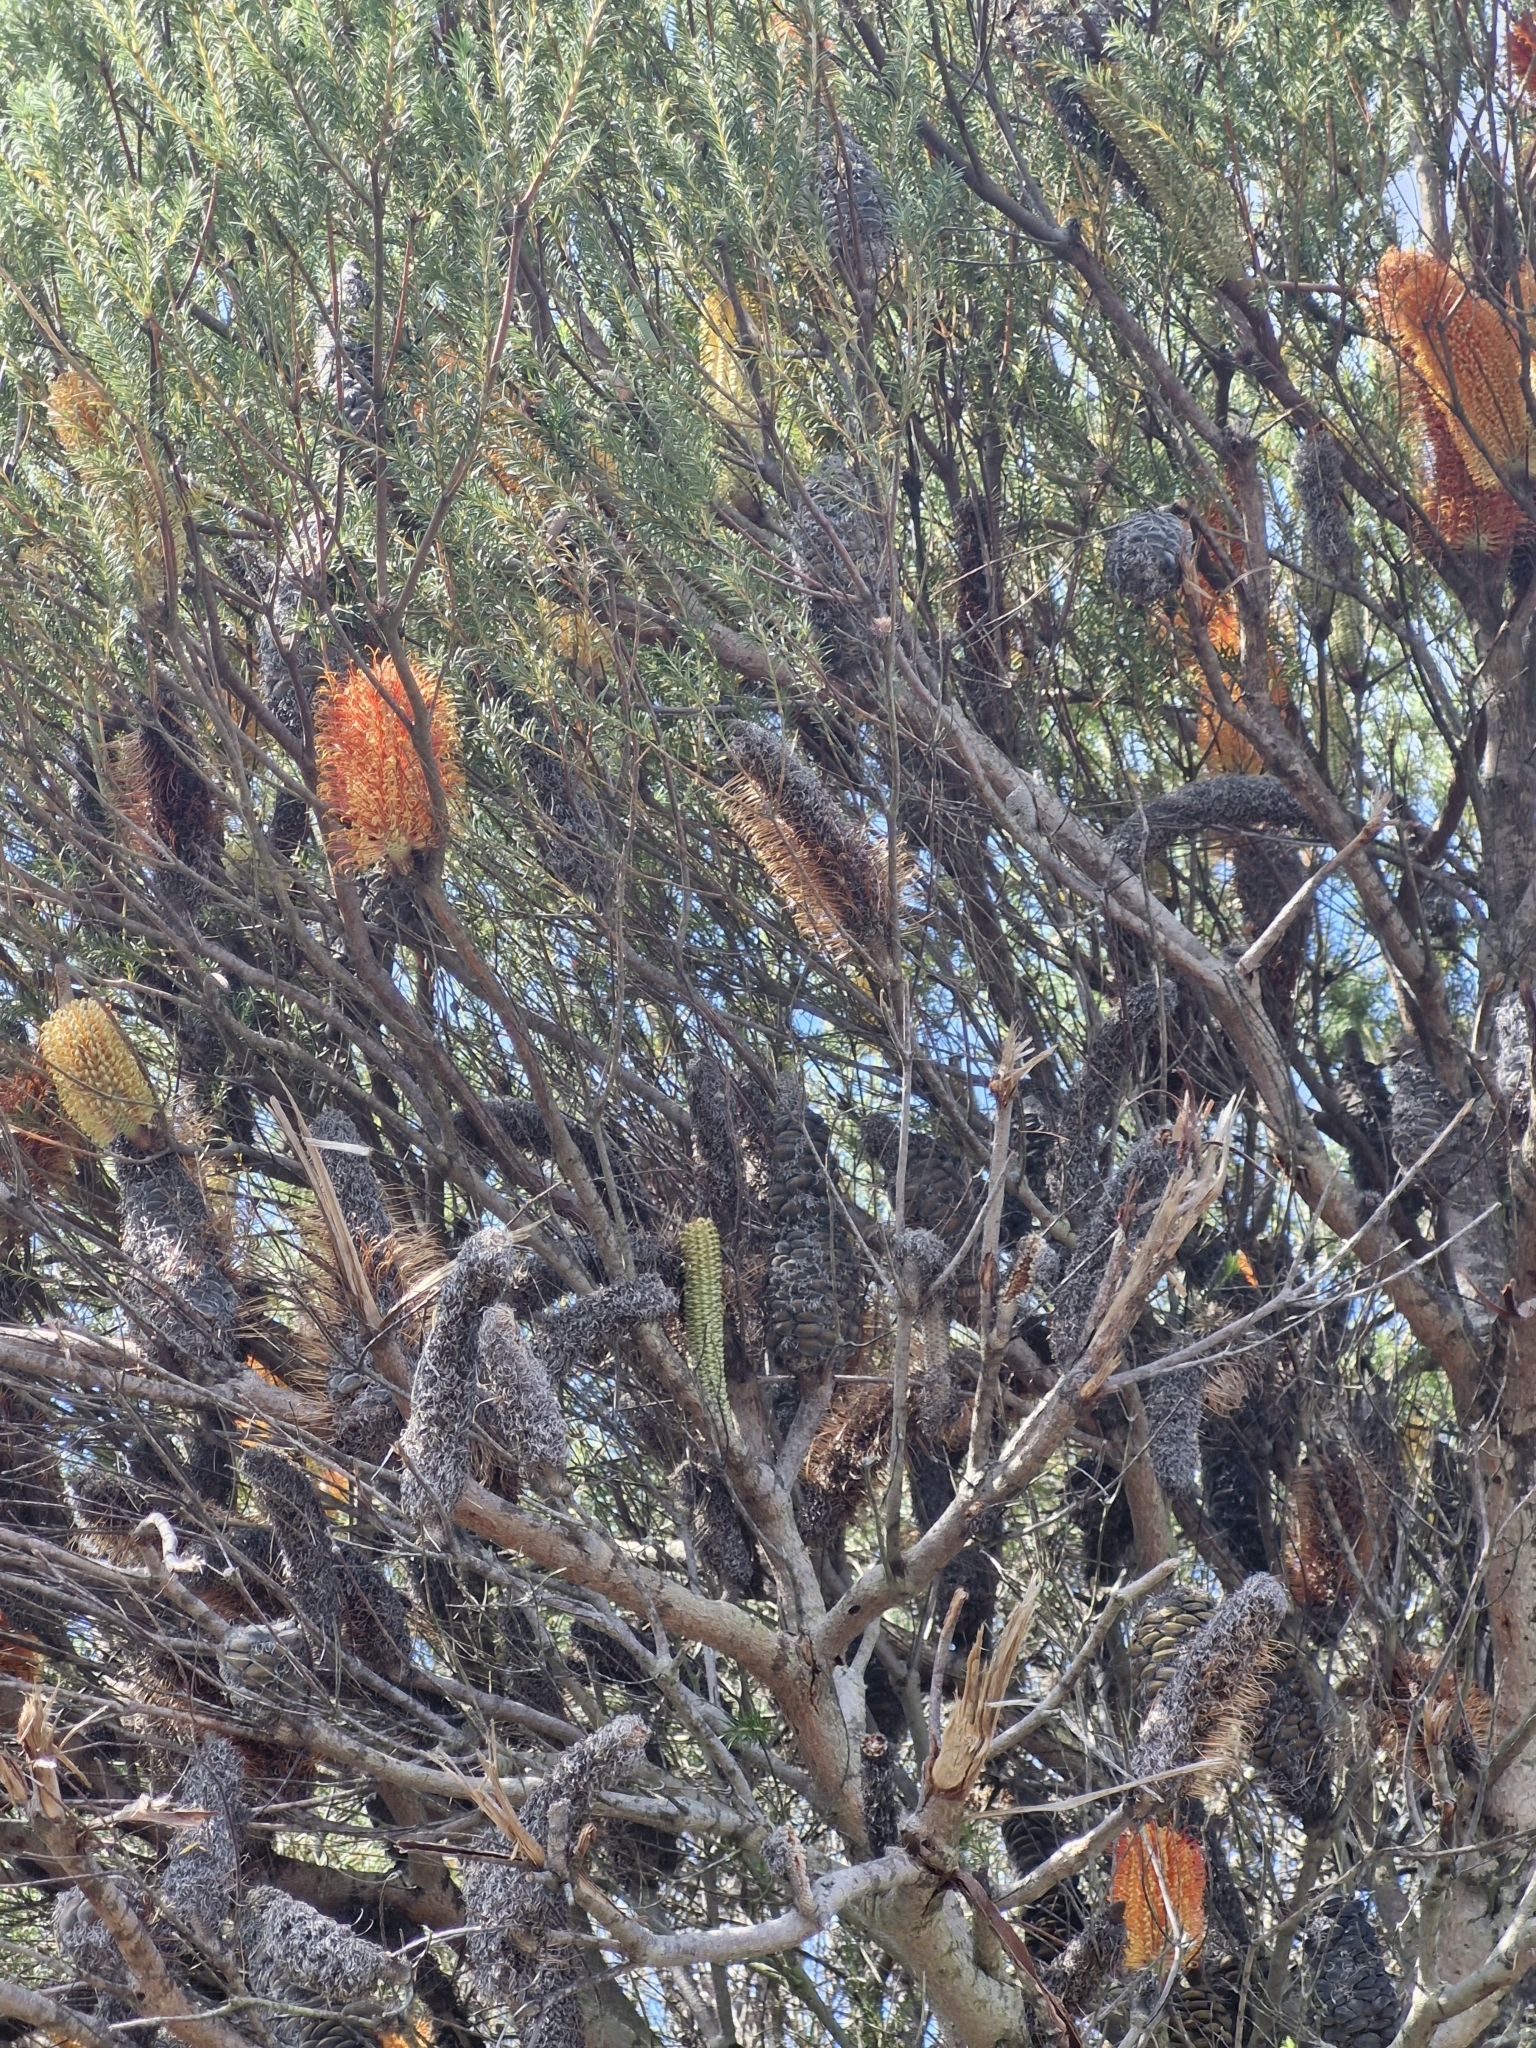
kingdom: Plantae
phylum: Tracheophyta
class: Magnoliopsida
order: Proteales
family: Proteaceae
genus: Banksia
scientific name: Banksia ericifolia
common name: Heath-leaf banksia
